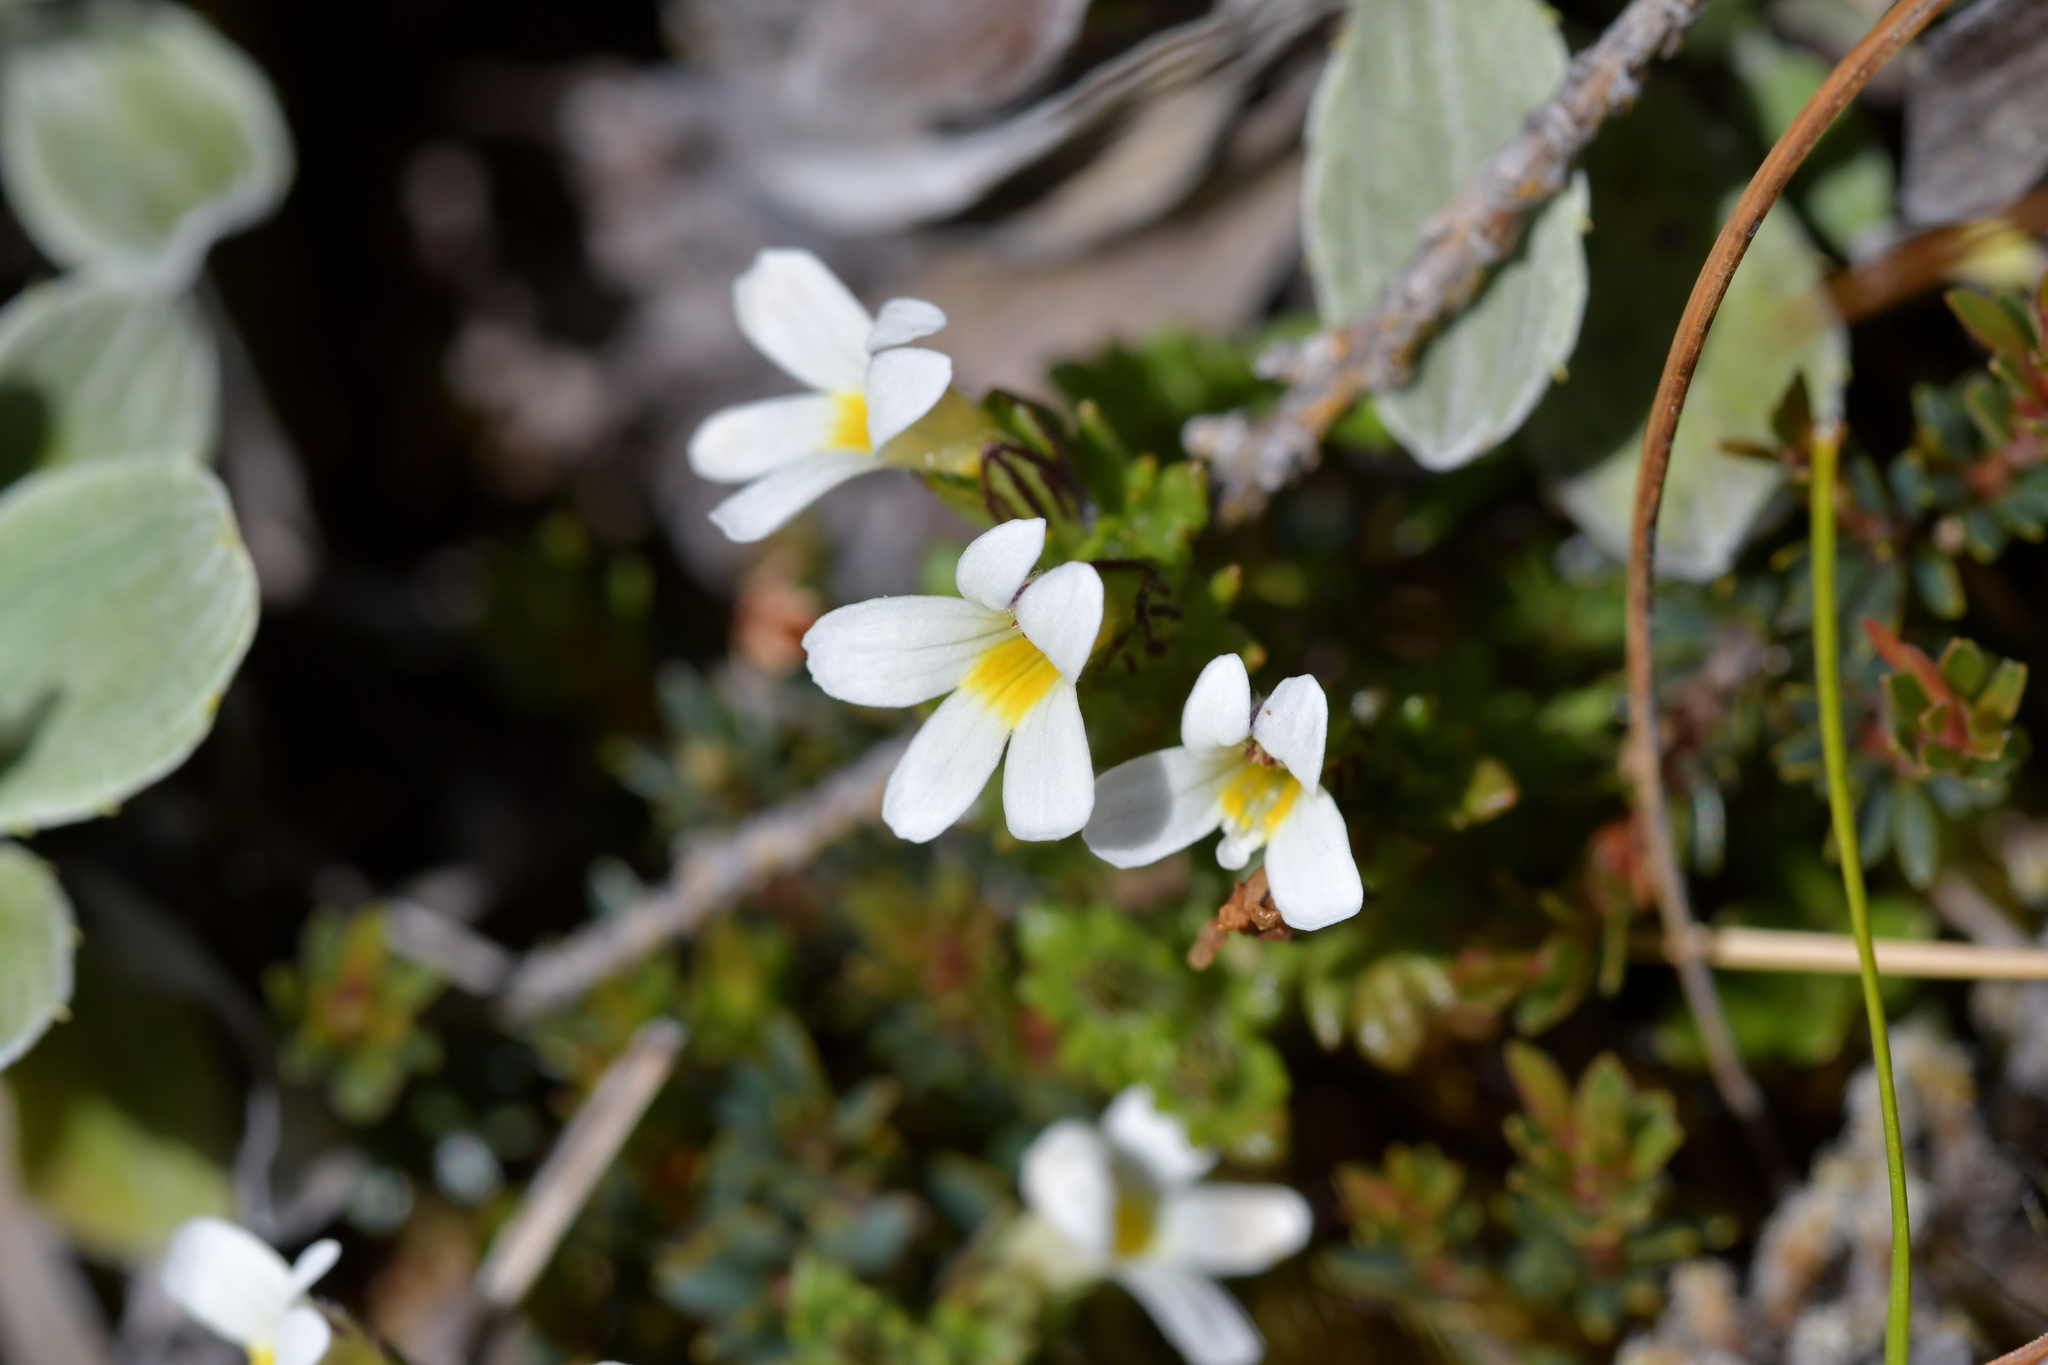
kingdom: Plantae
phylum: Tracheophyta
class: Magnoliopsida
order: Lamiales
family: Orobanchaceae
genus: Euphrasia
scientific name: Euphrasia zelandica
